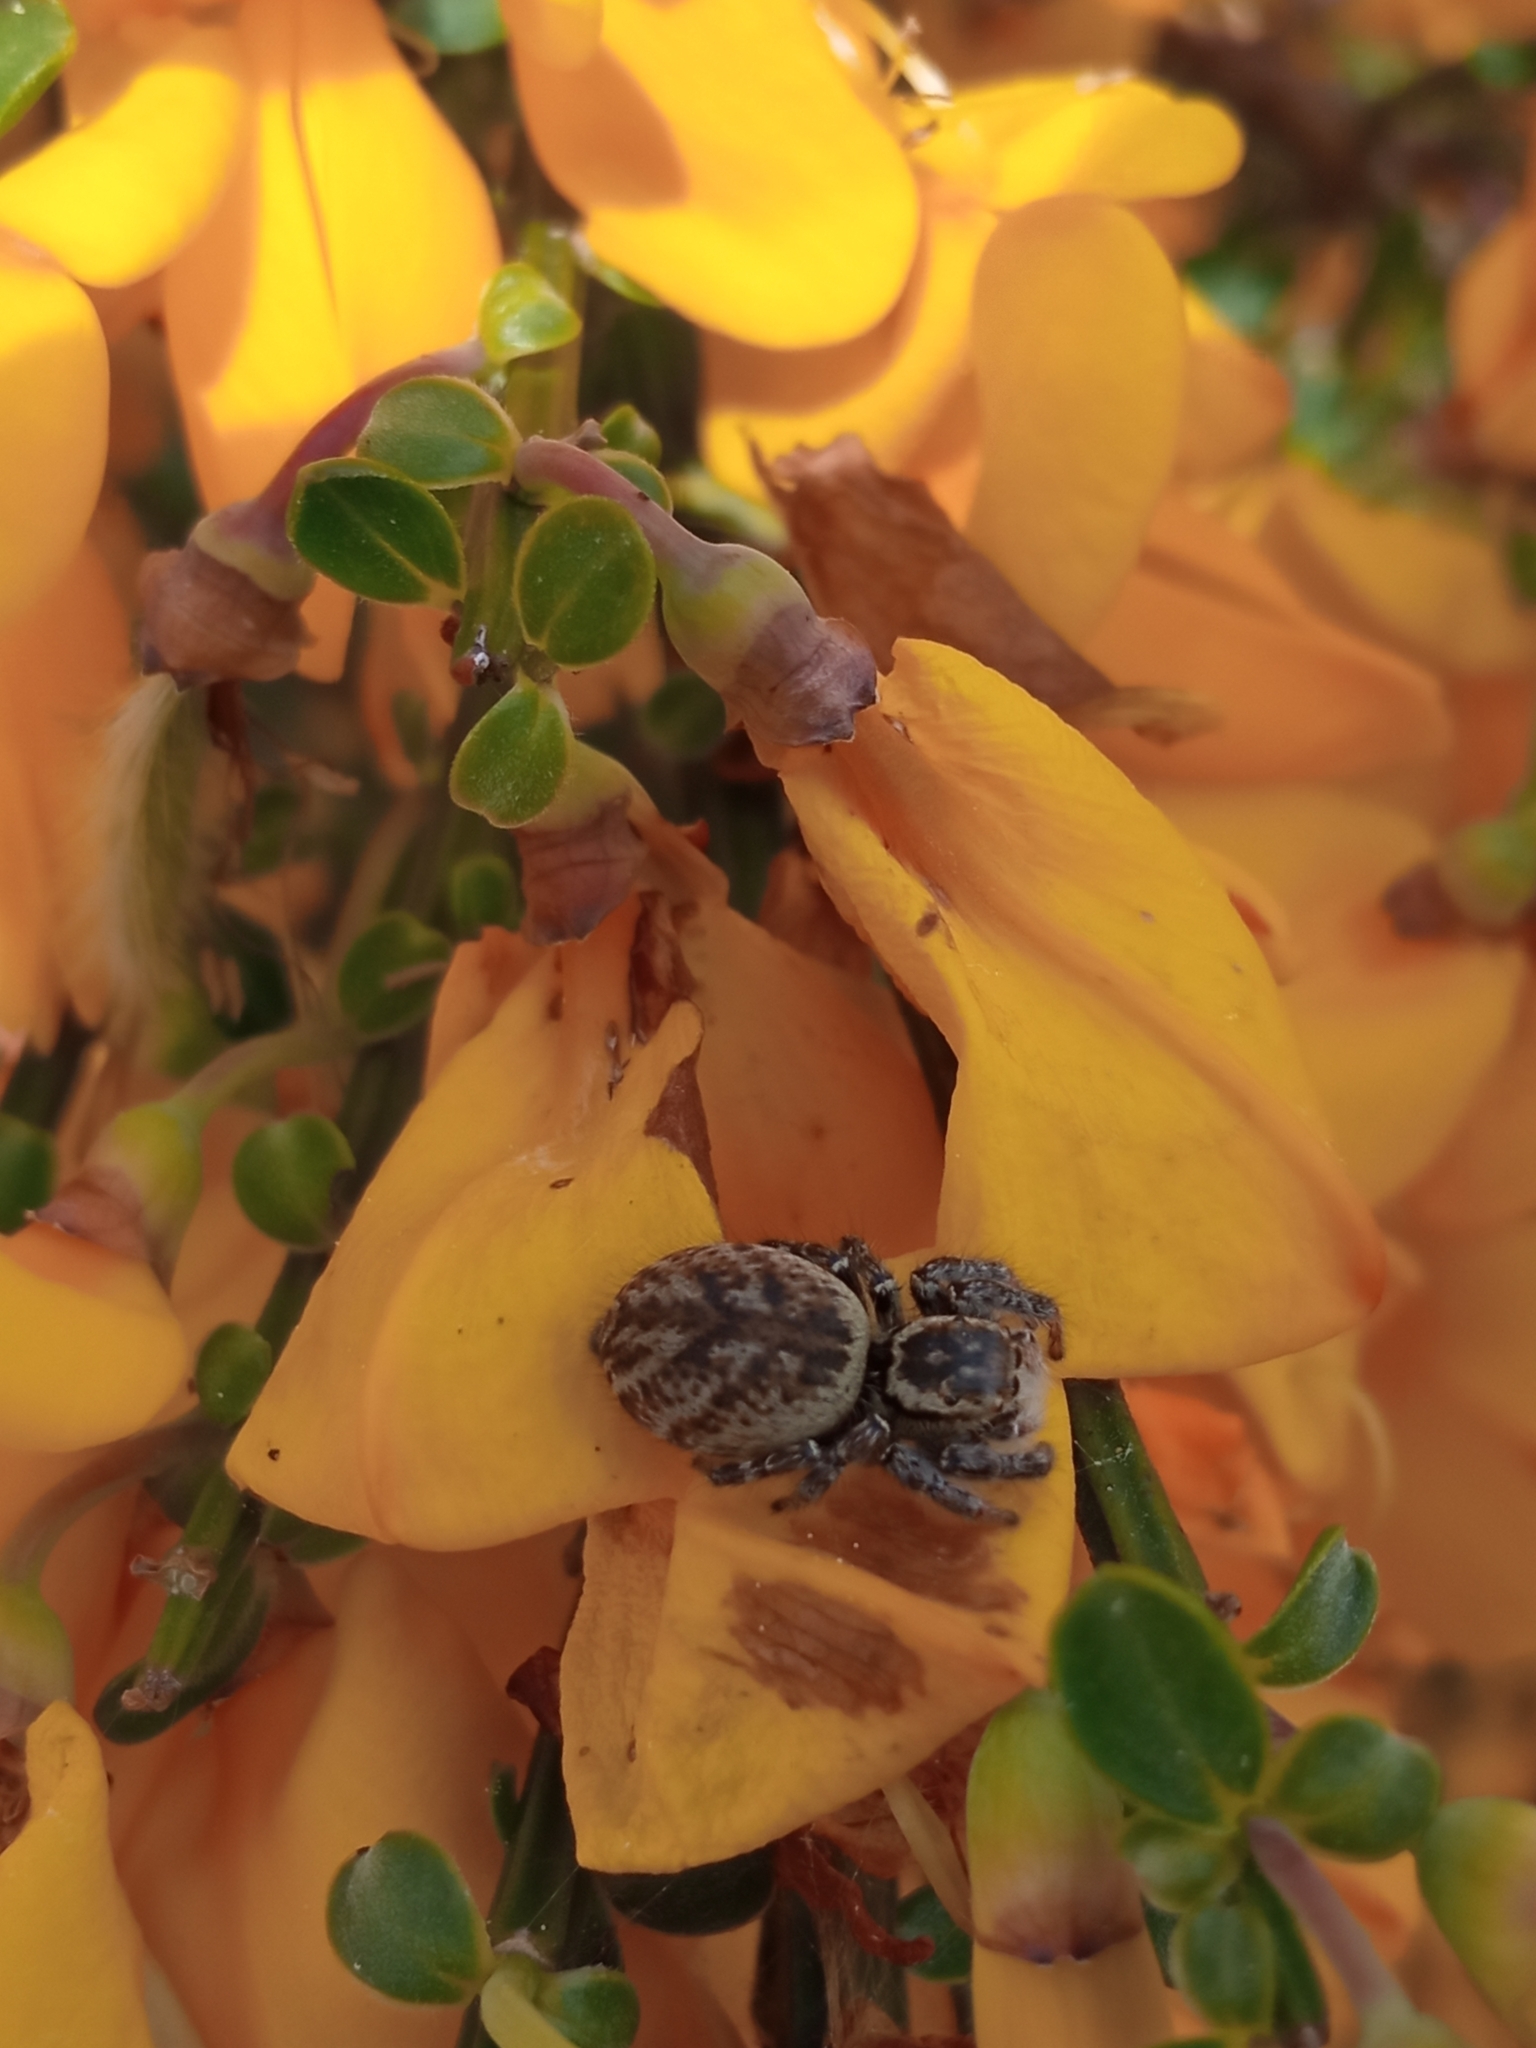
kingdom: Animalia
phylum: Arthropoda
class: Arachnida
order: Araneae
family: Salticidae
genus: Carrhotus
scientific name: Carrhotus xanthogramma
